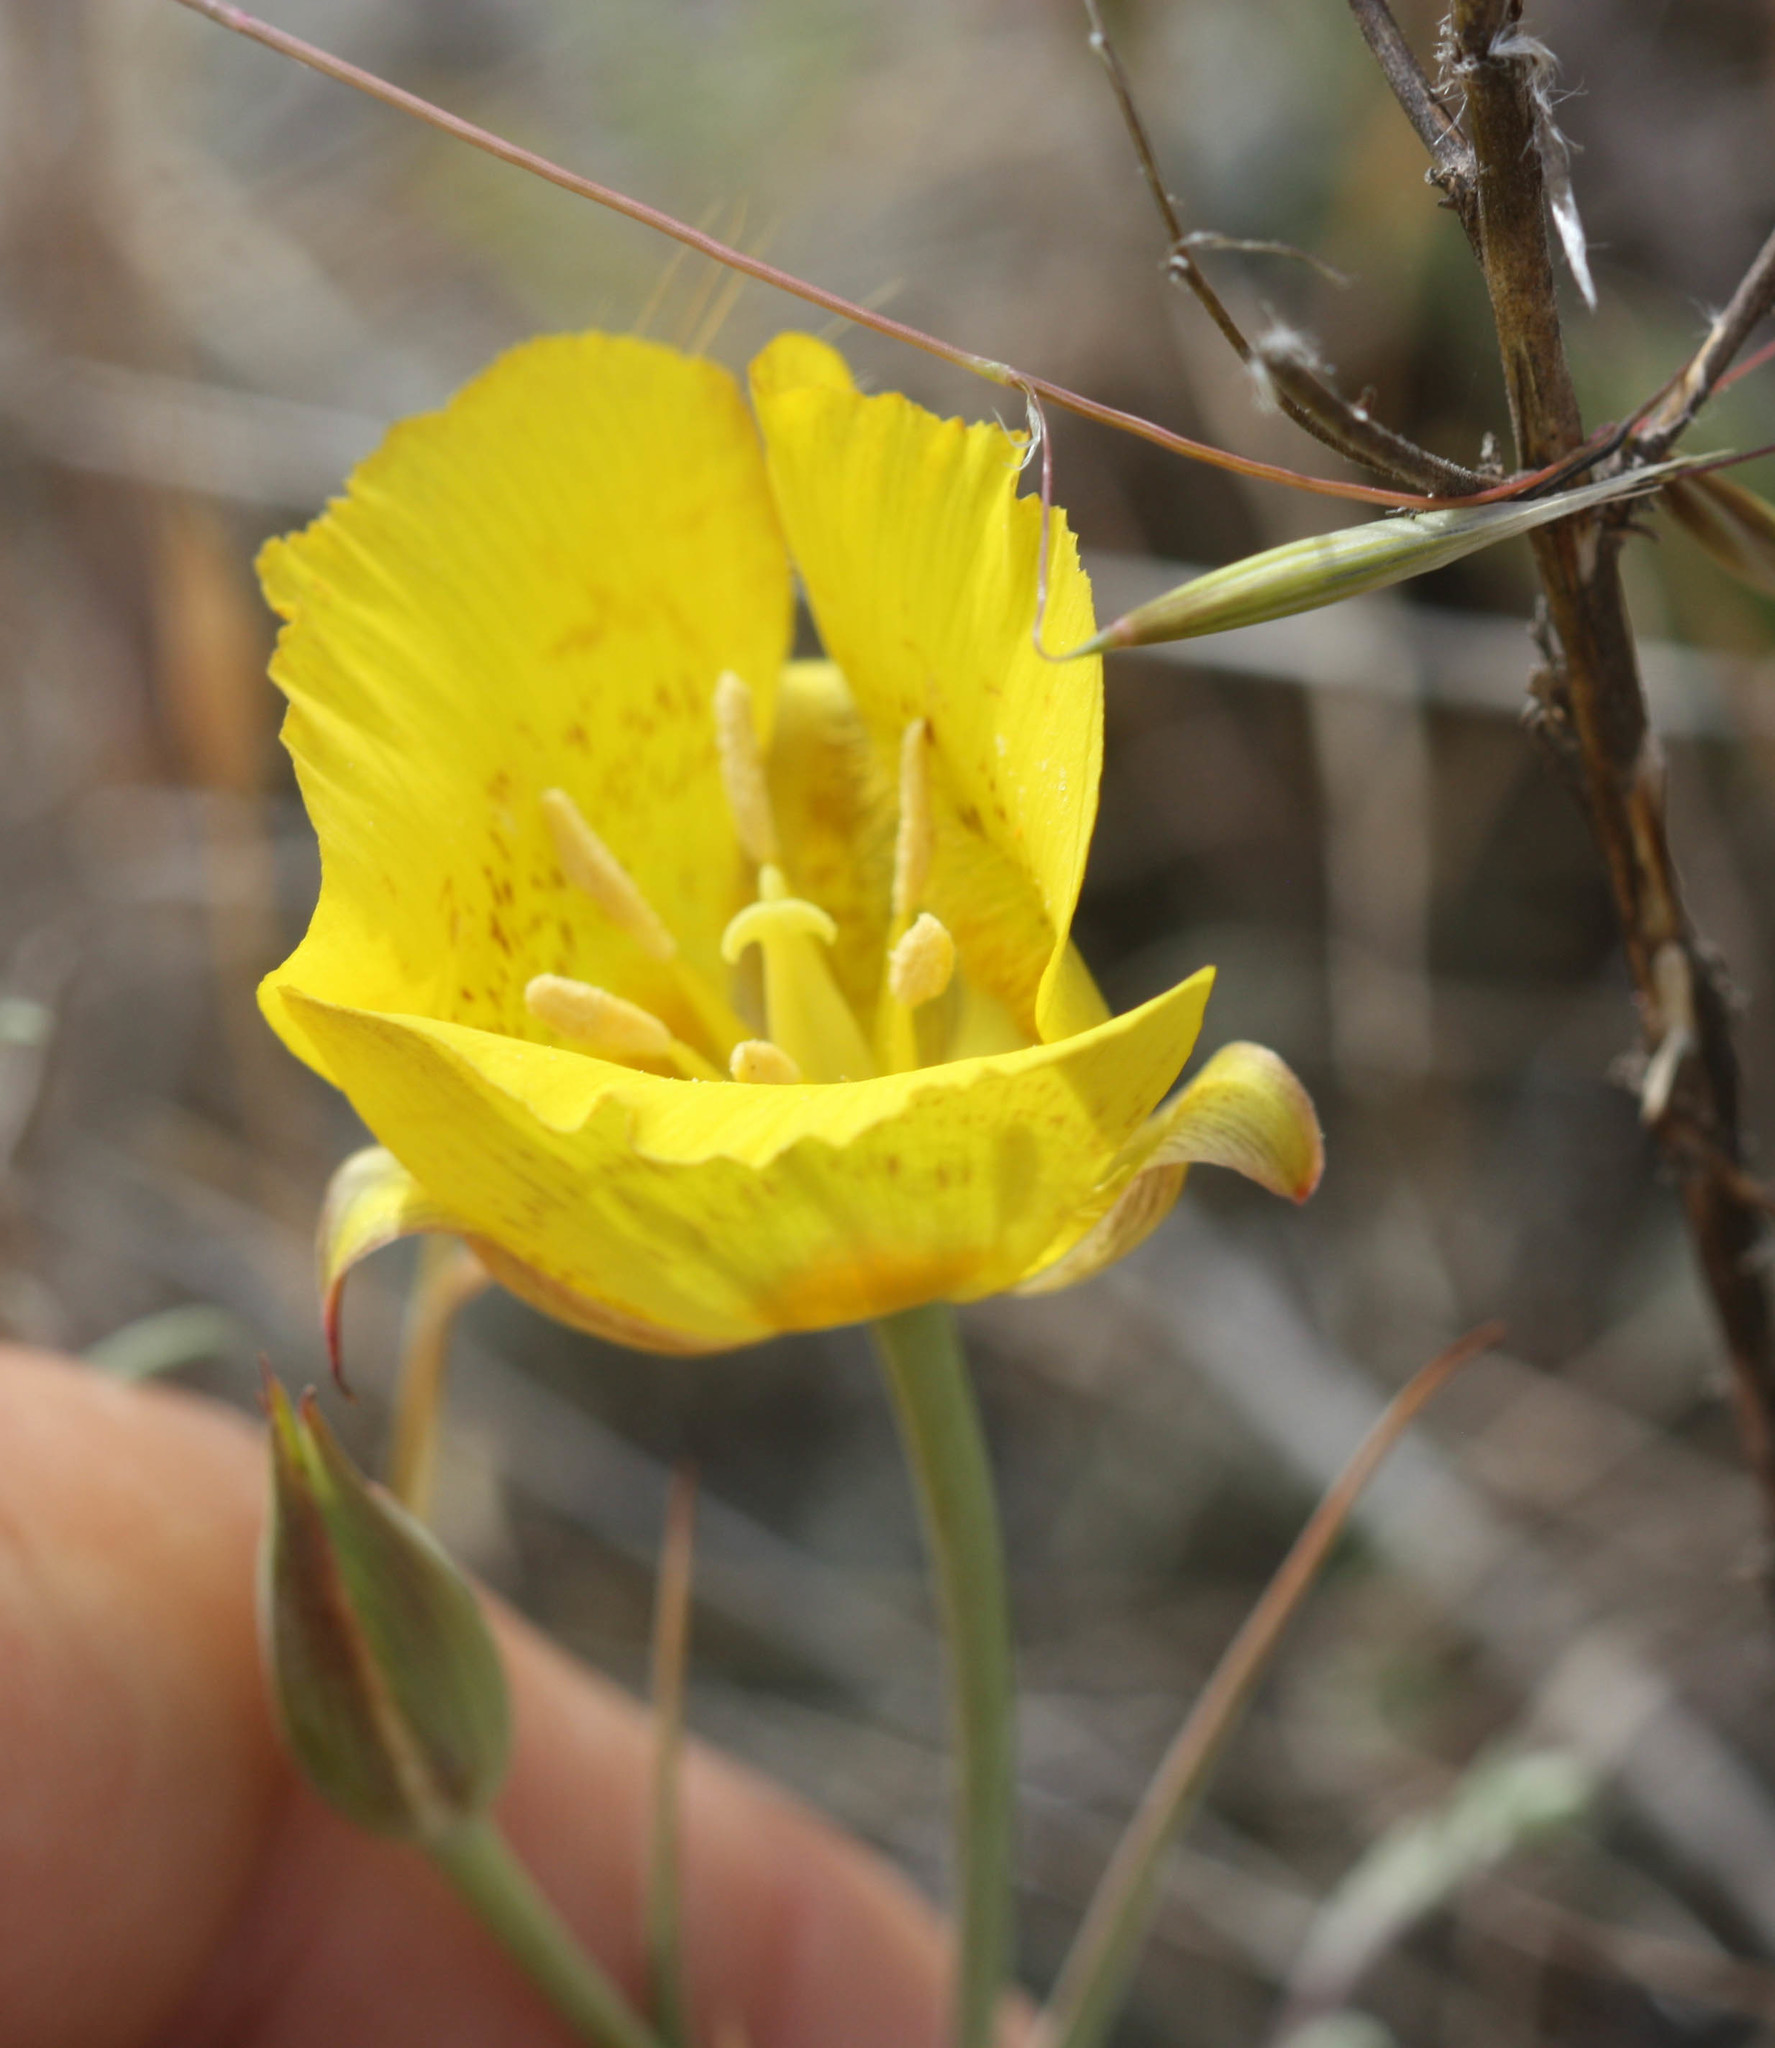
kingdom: Plantae
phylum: Tracheophyta
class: Liliopsida
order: Liliales
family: Liliaceae
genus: Calochortus
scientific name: Calochortus luteus
